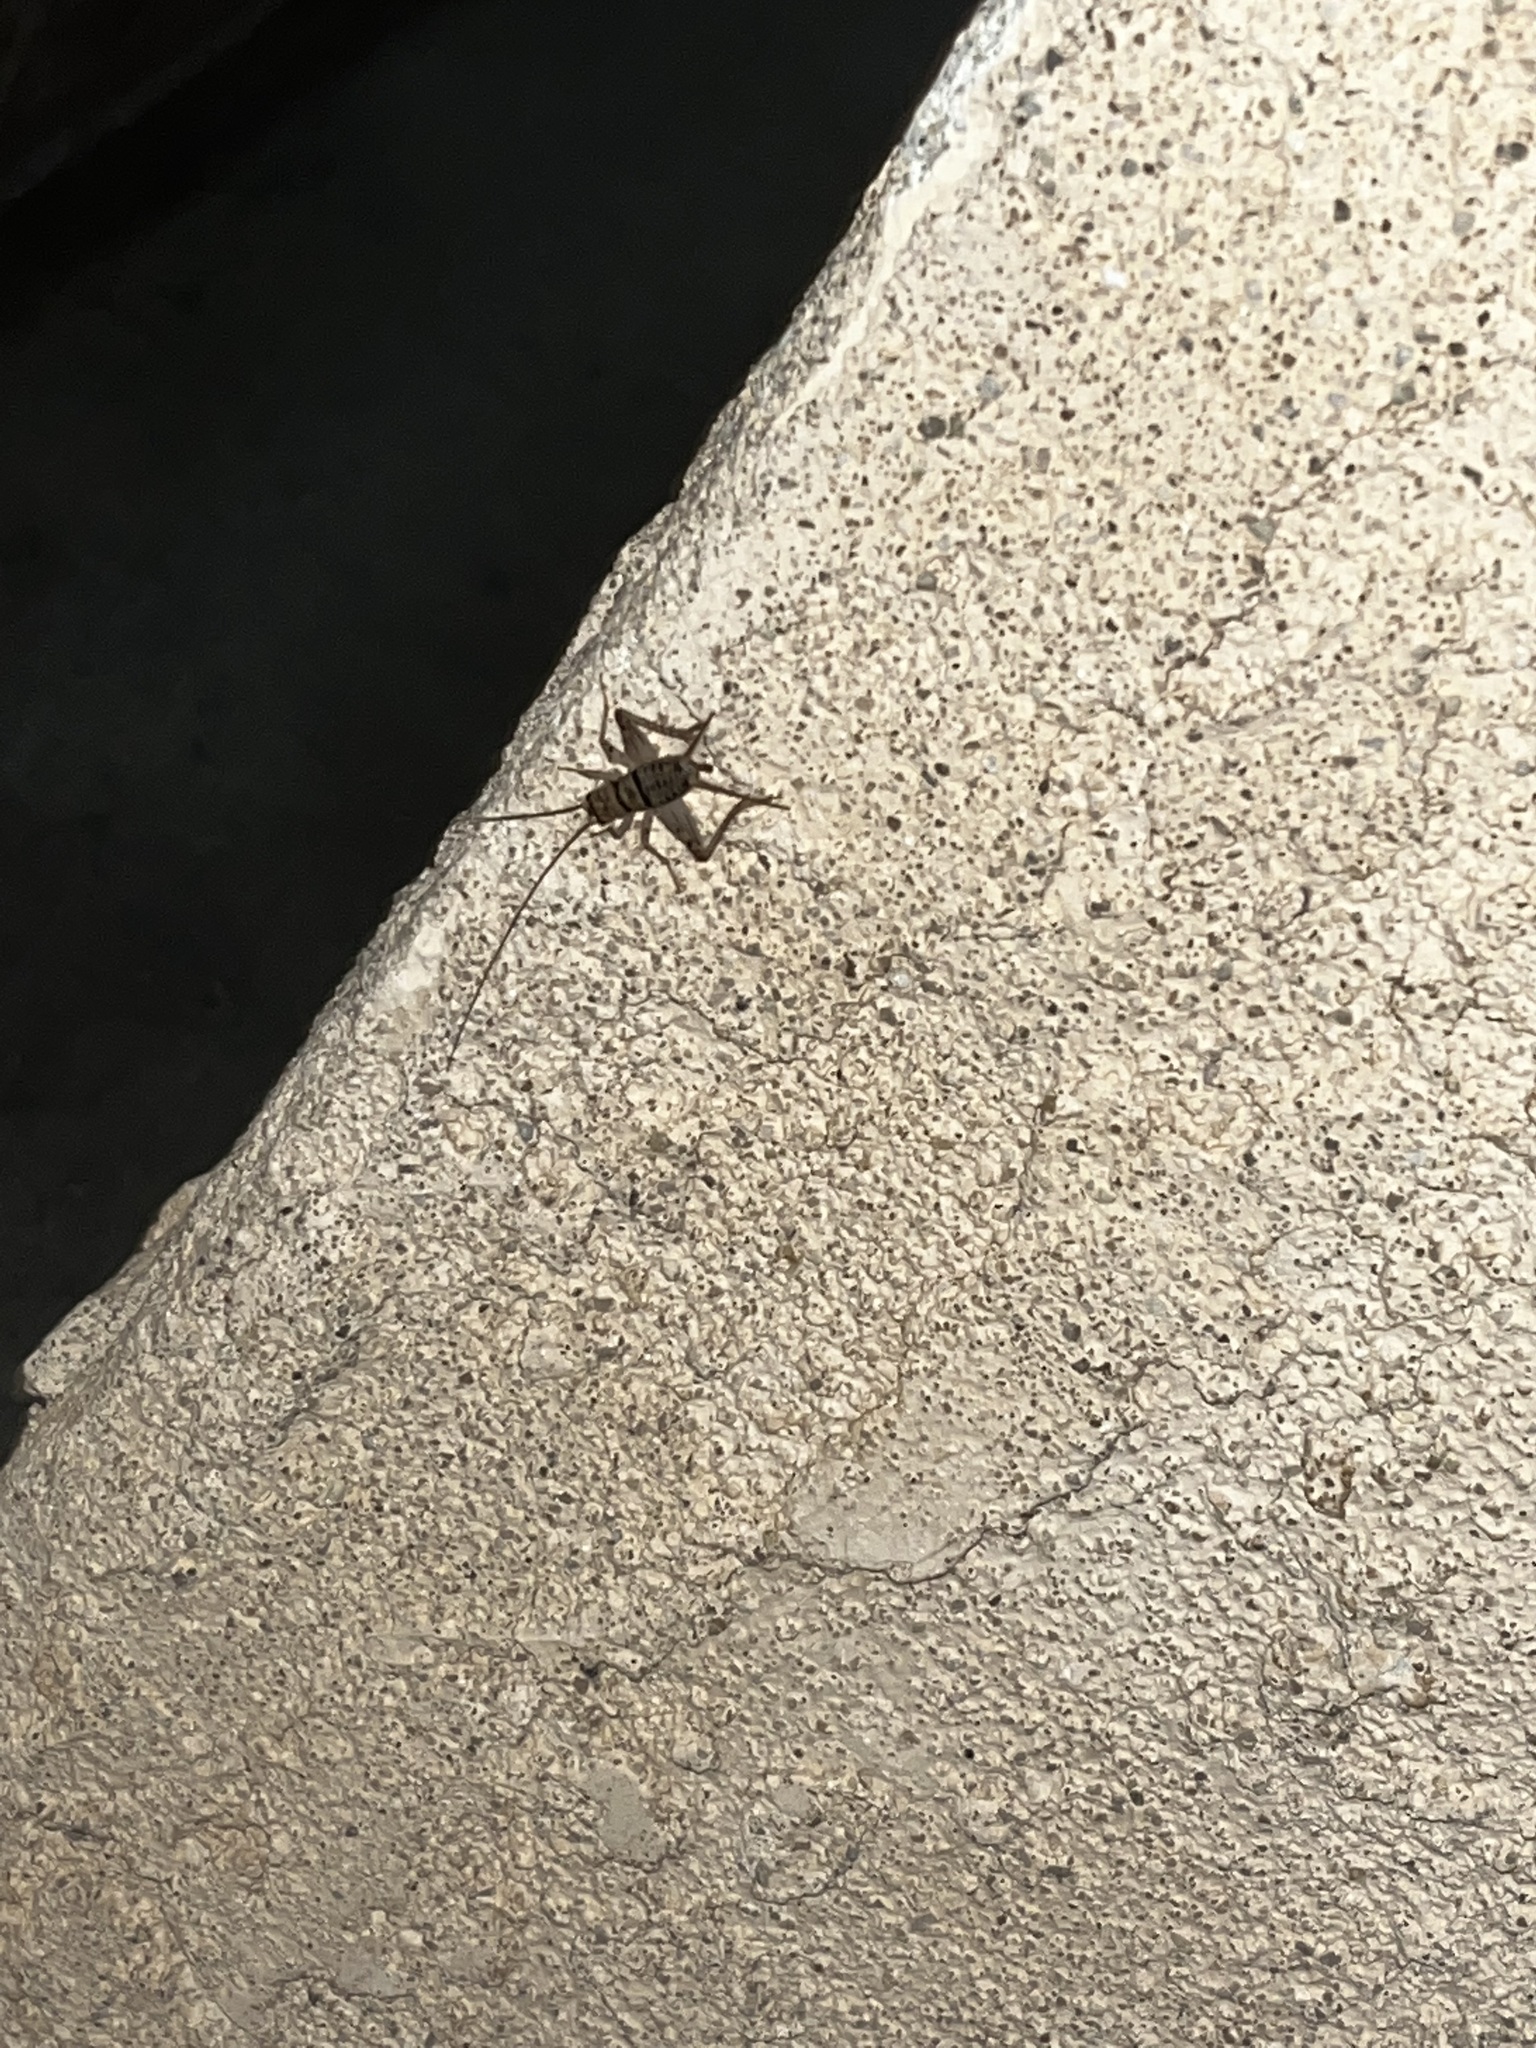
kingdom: Animalia
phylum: Arthropoda
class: Insecta
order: Orthoptera
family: Gryllidae
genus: Gryllodes
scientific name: Gryllodes sigillatus
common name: Tropical house cricket
